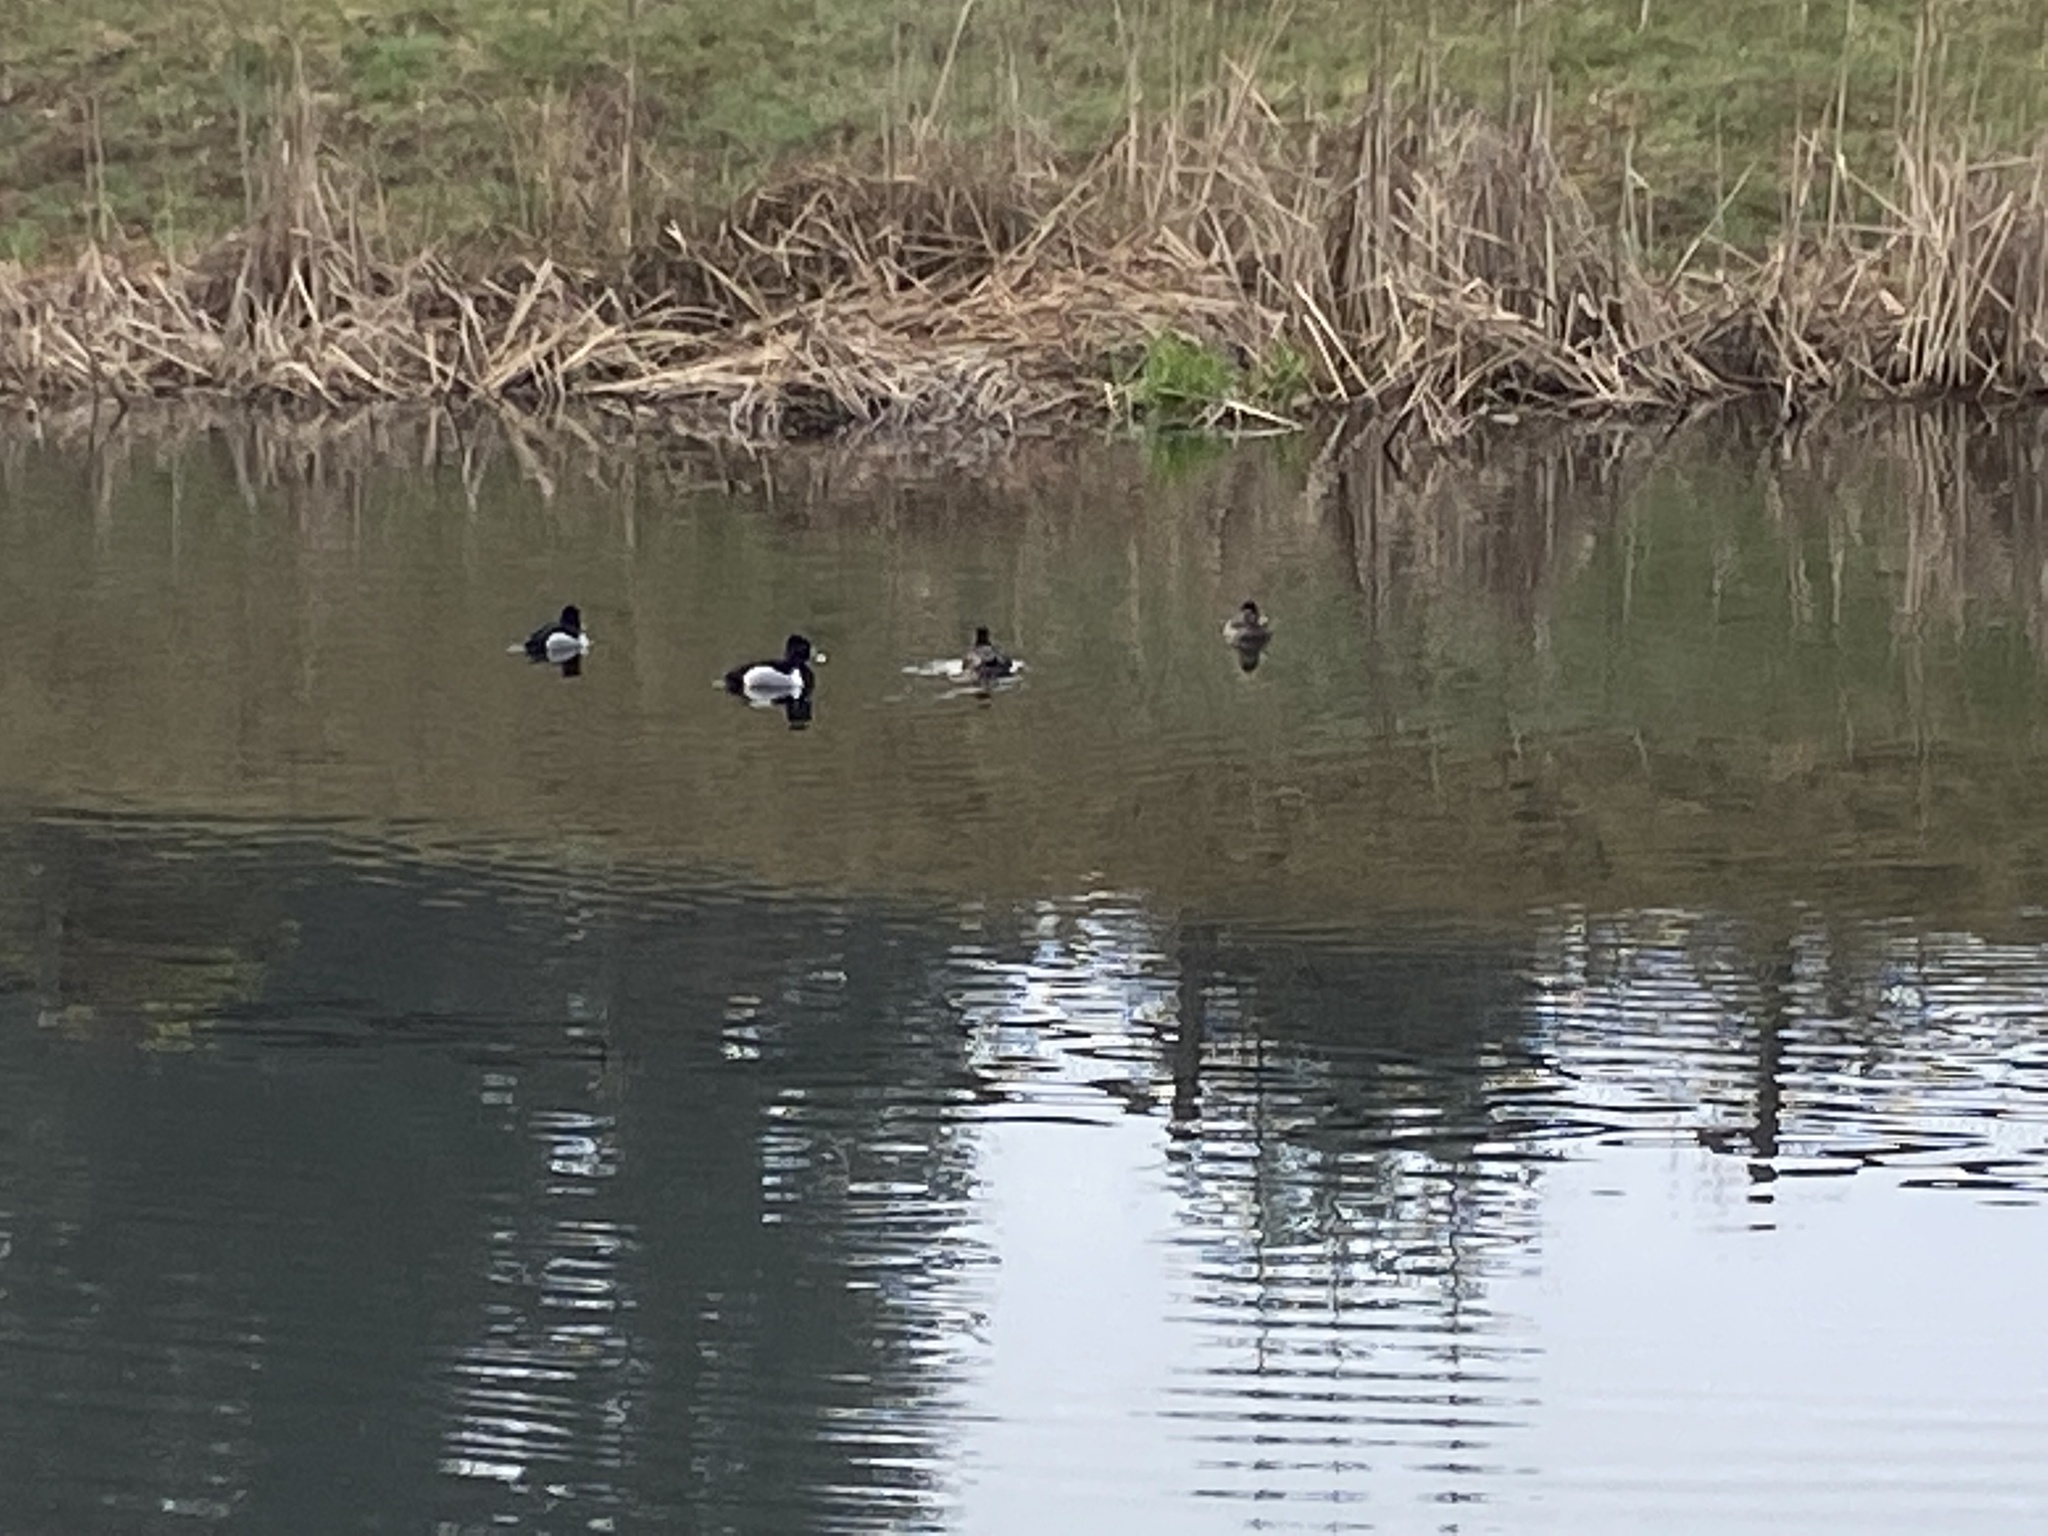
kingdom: Animalia
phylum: Chordata
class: Aves
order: Anseriformes
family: Anatidae
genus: Aythya
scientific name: Aythya collaris
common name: Ring-necked duck
